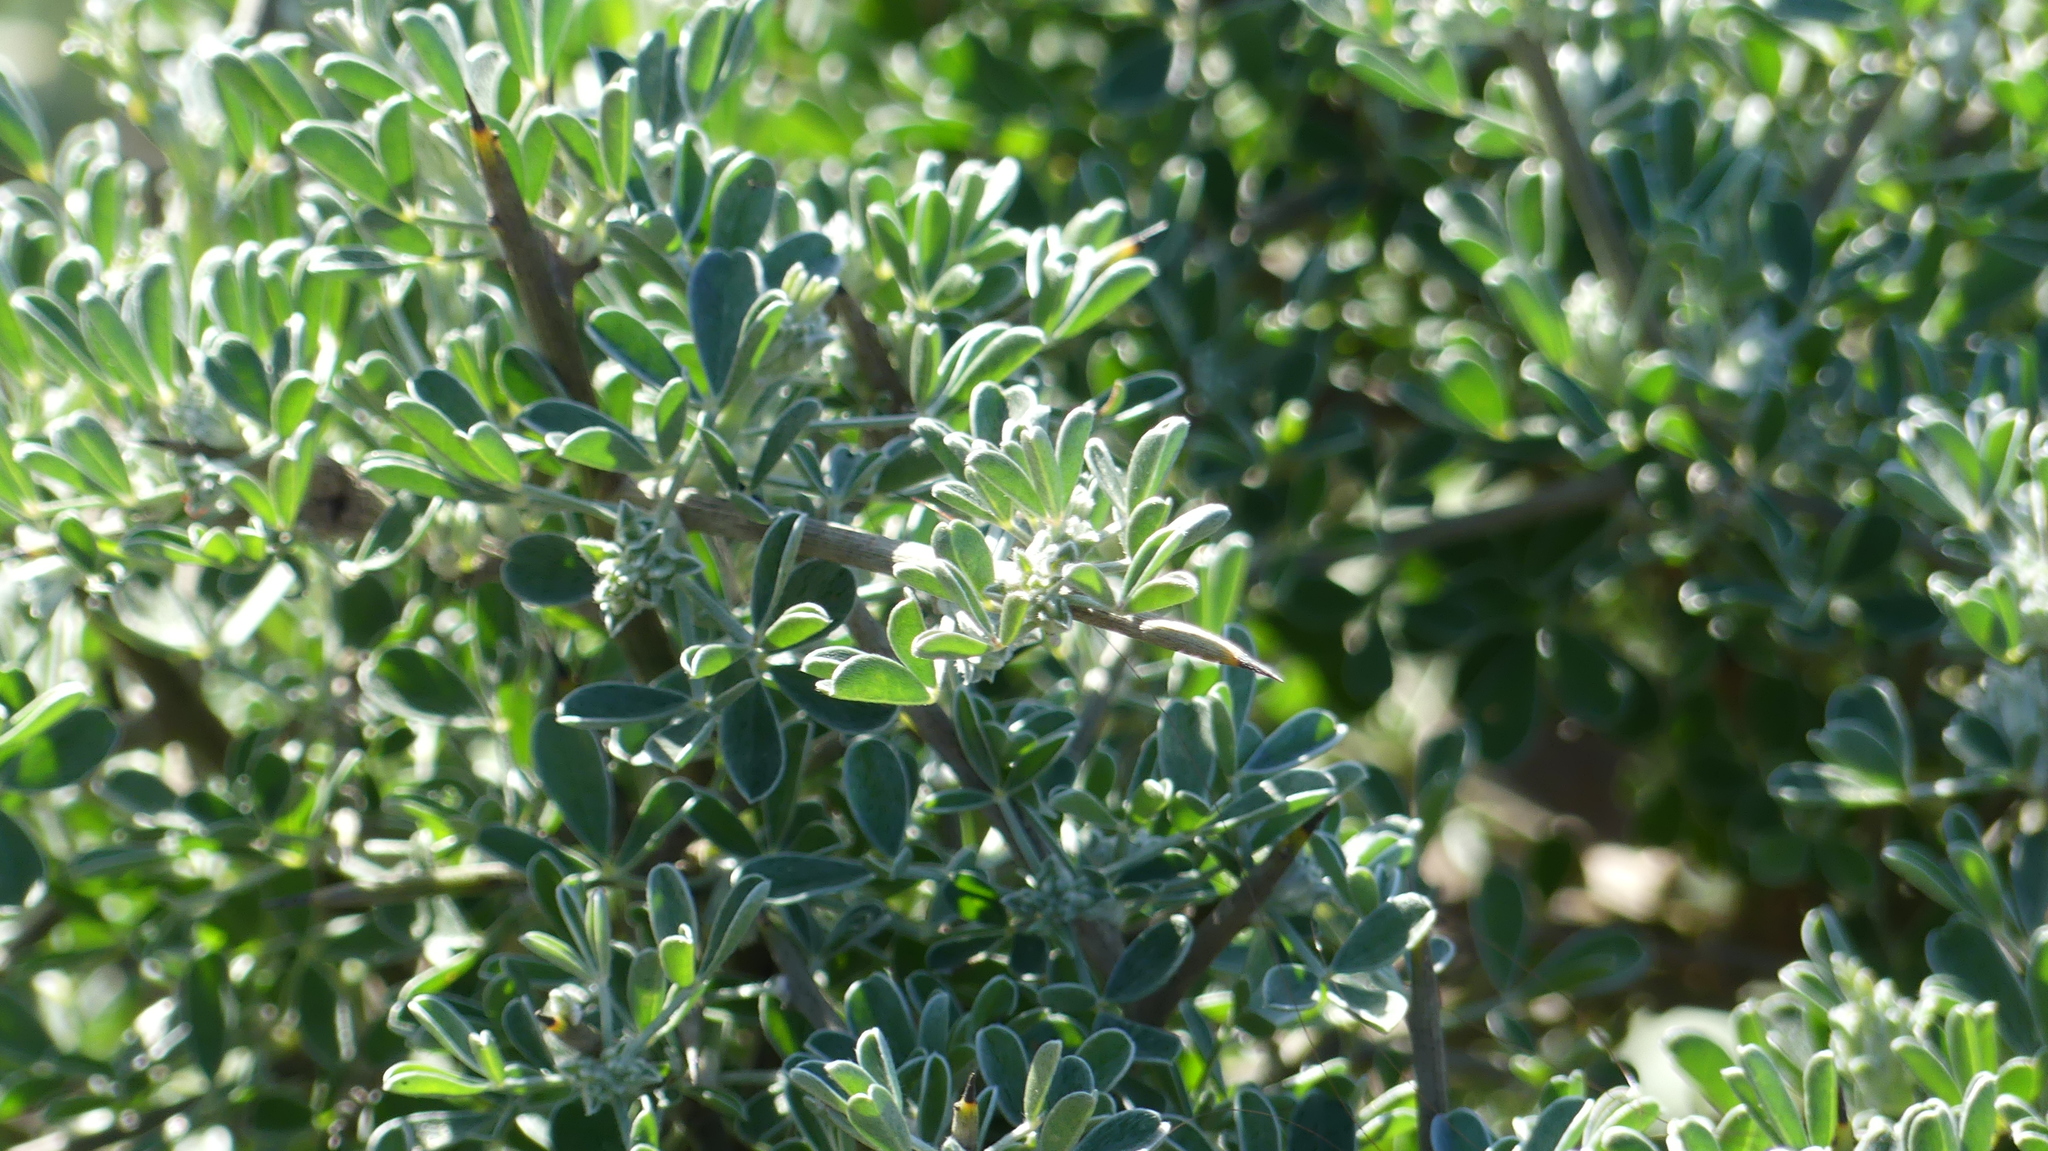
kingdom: Plantae
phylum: Tracheophyta
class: Magnoliopsida
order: Fabales
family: Fabaceae
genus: Calicotome
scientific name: Calicotome intermedia
